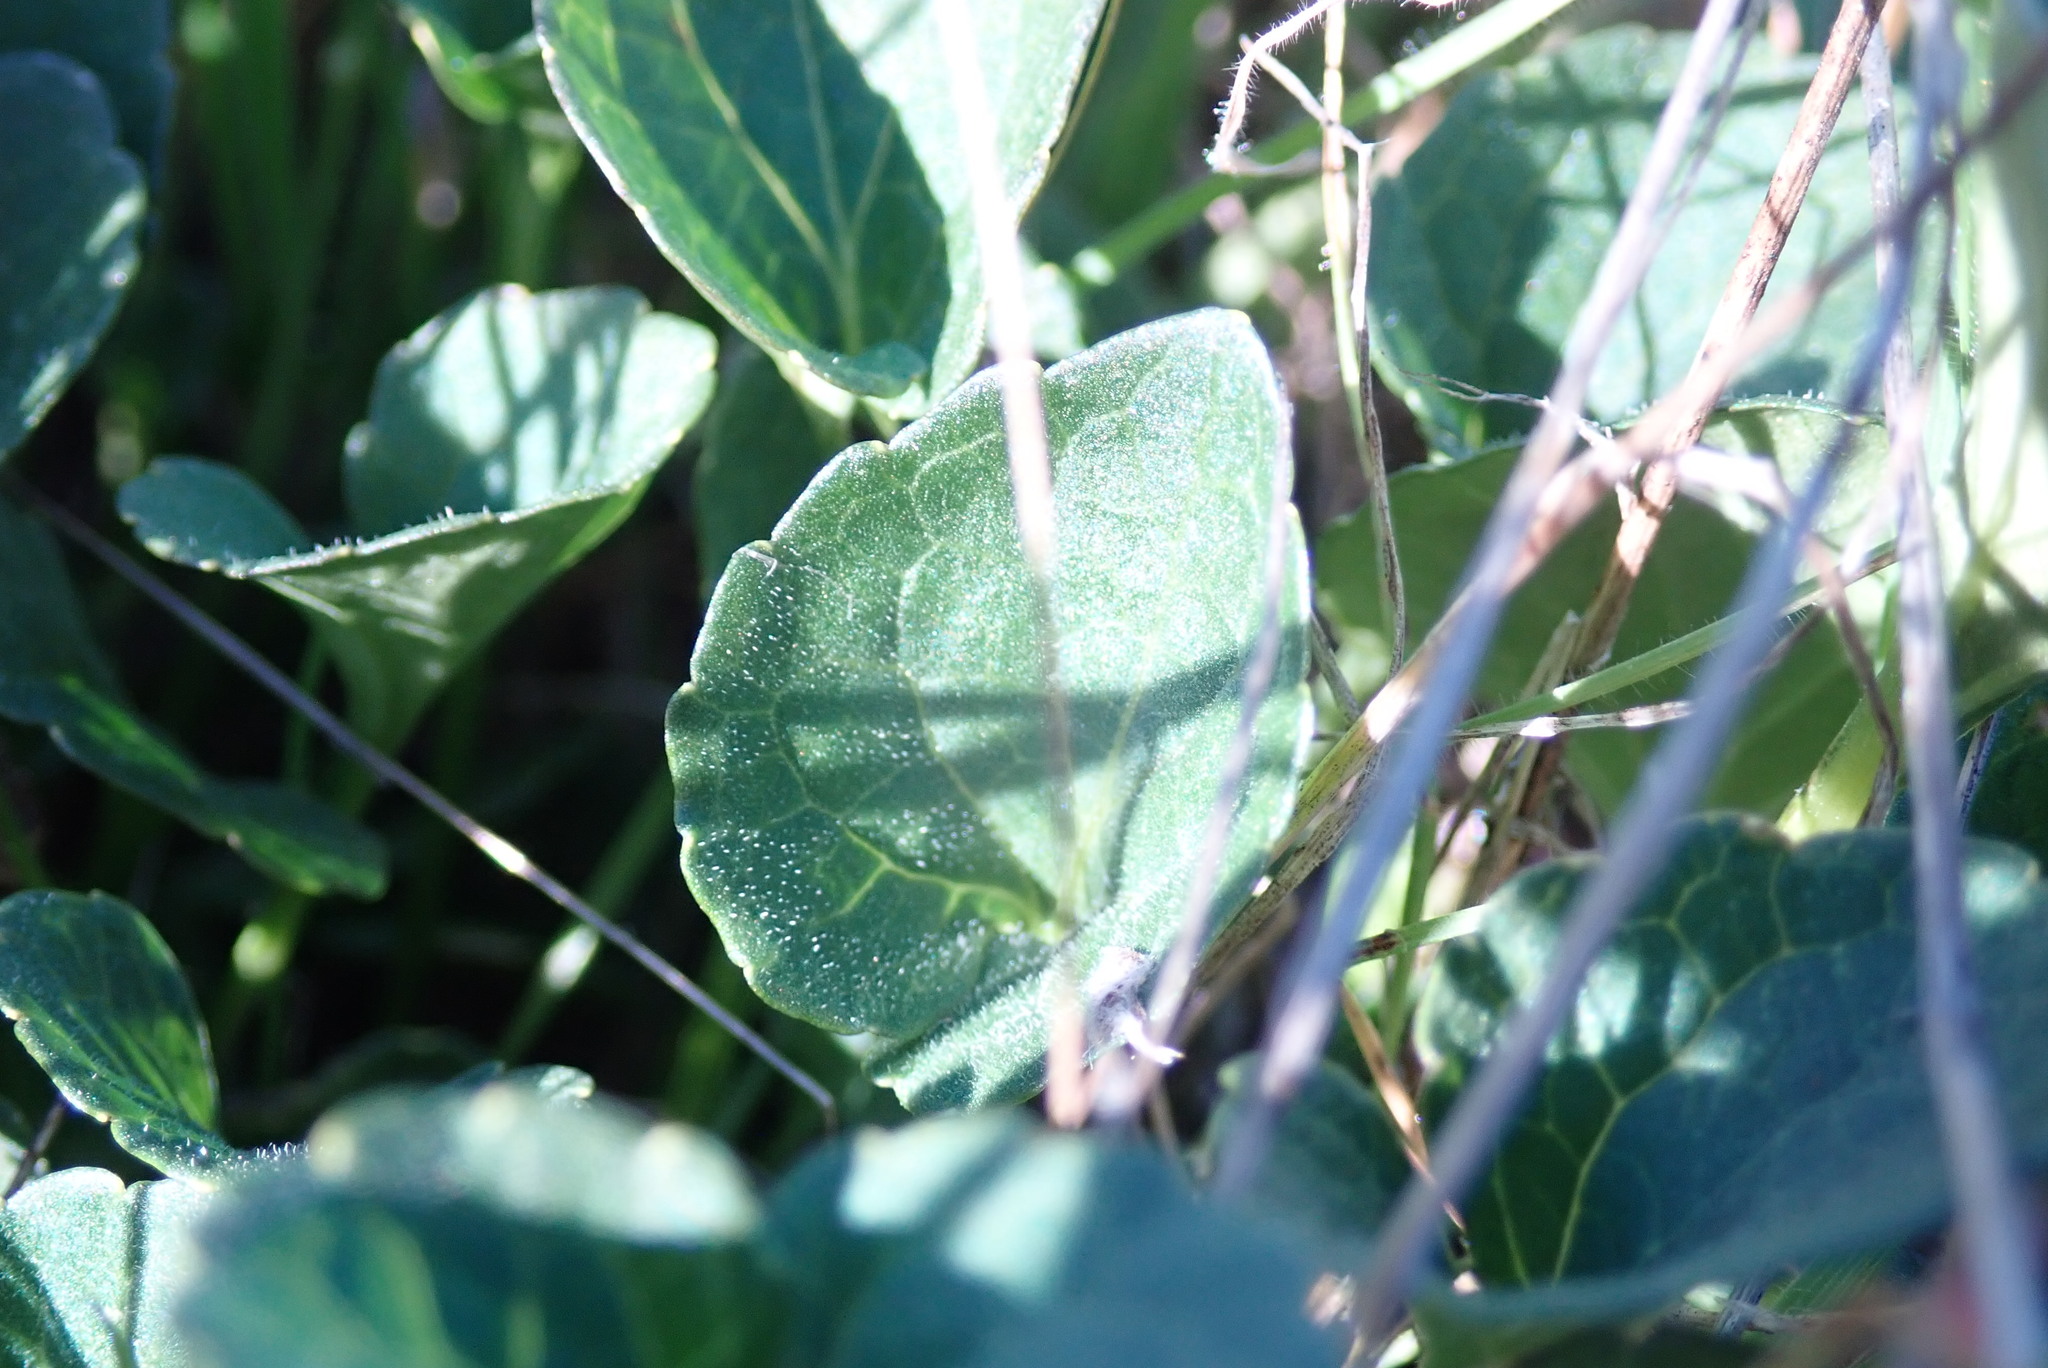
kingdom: Plantae
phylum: Tracheophyta
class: Magnoliopsida
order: Malpighiales
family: Violaceae
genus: Viola
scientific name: Viola pedunculata
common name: California golden violet
